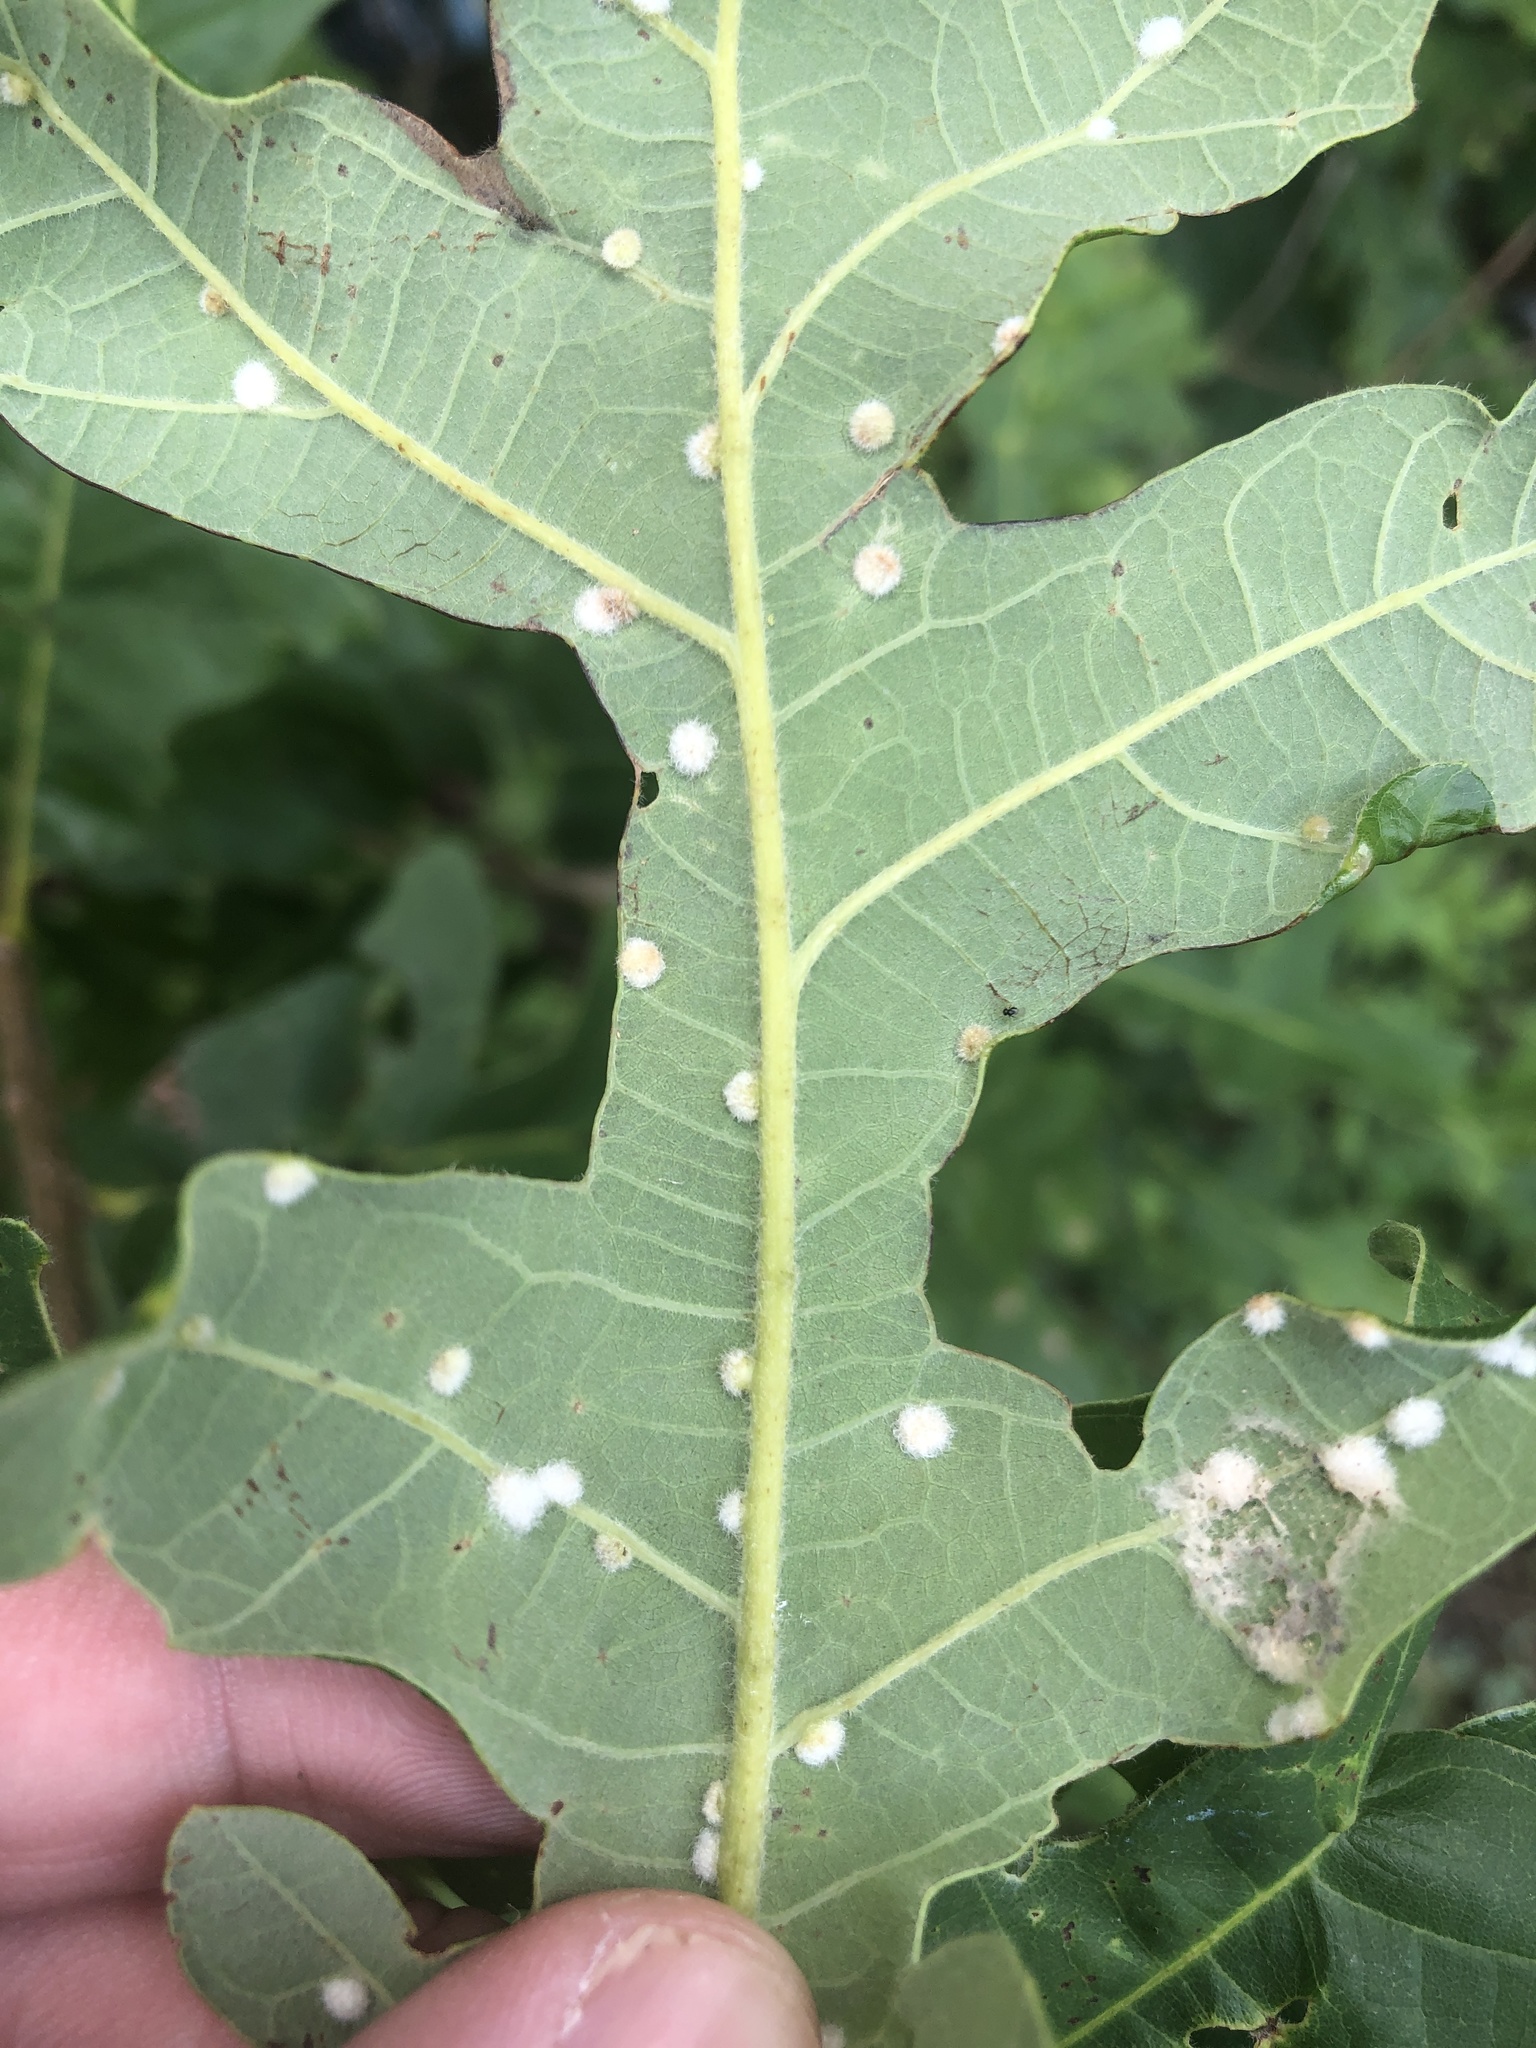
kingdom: Animalia
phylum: Arthropoda
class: Insecta
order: Hymenoptera
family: Cynipidae
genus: Neuroterus
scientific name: Neuroterus quercusverrucarum
